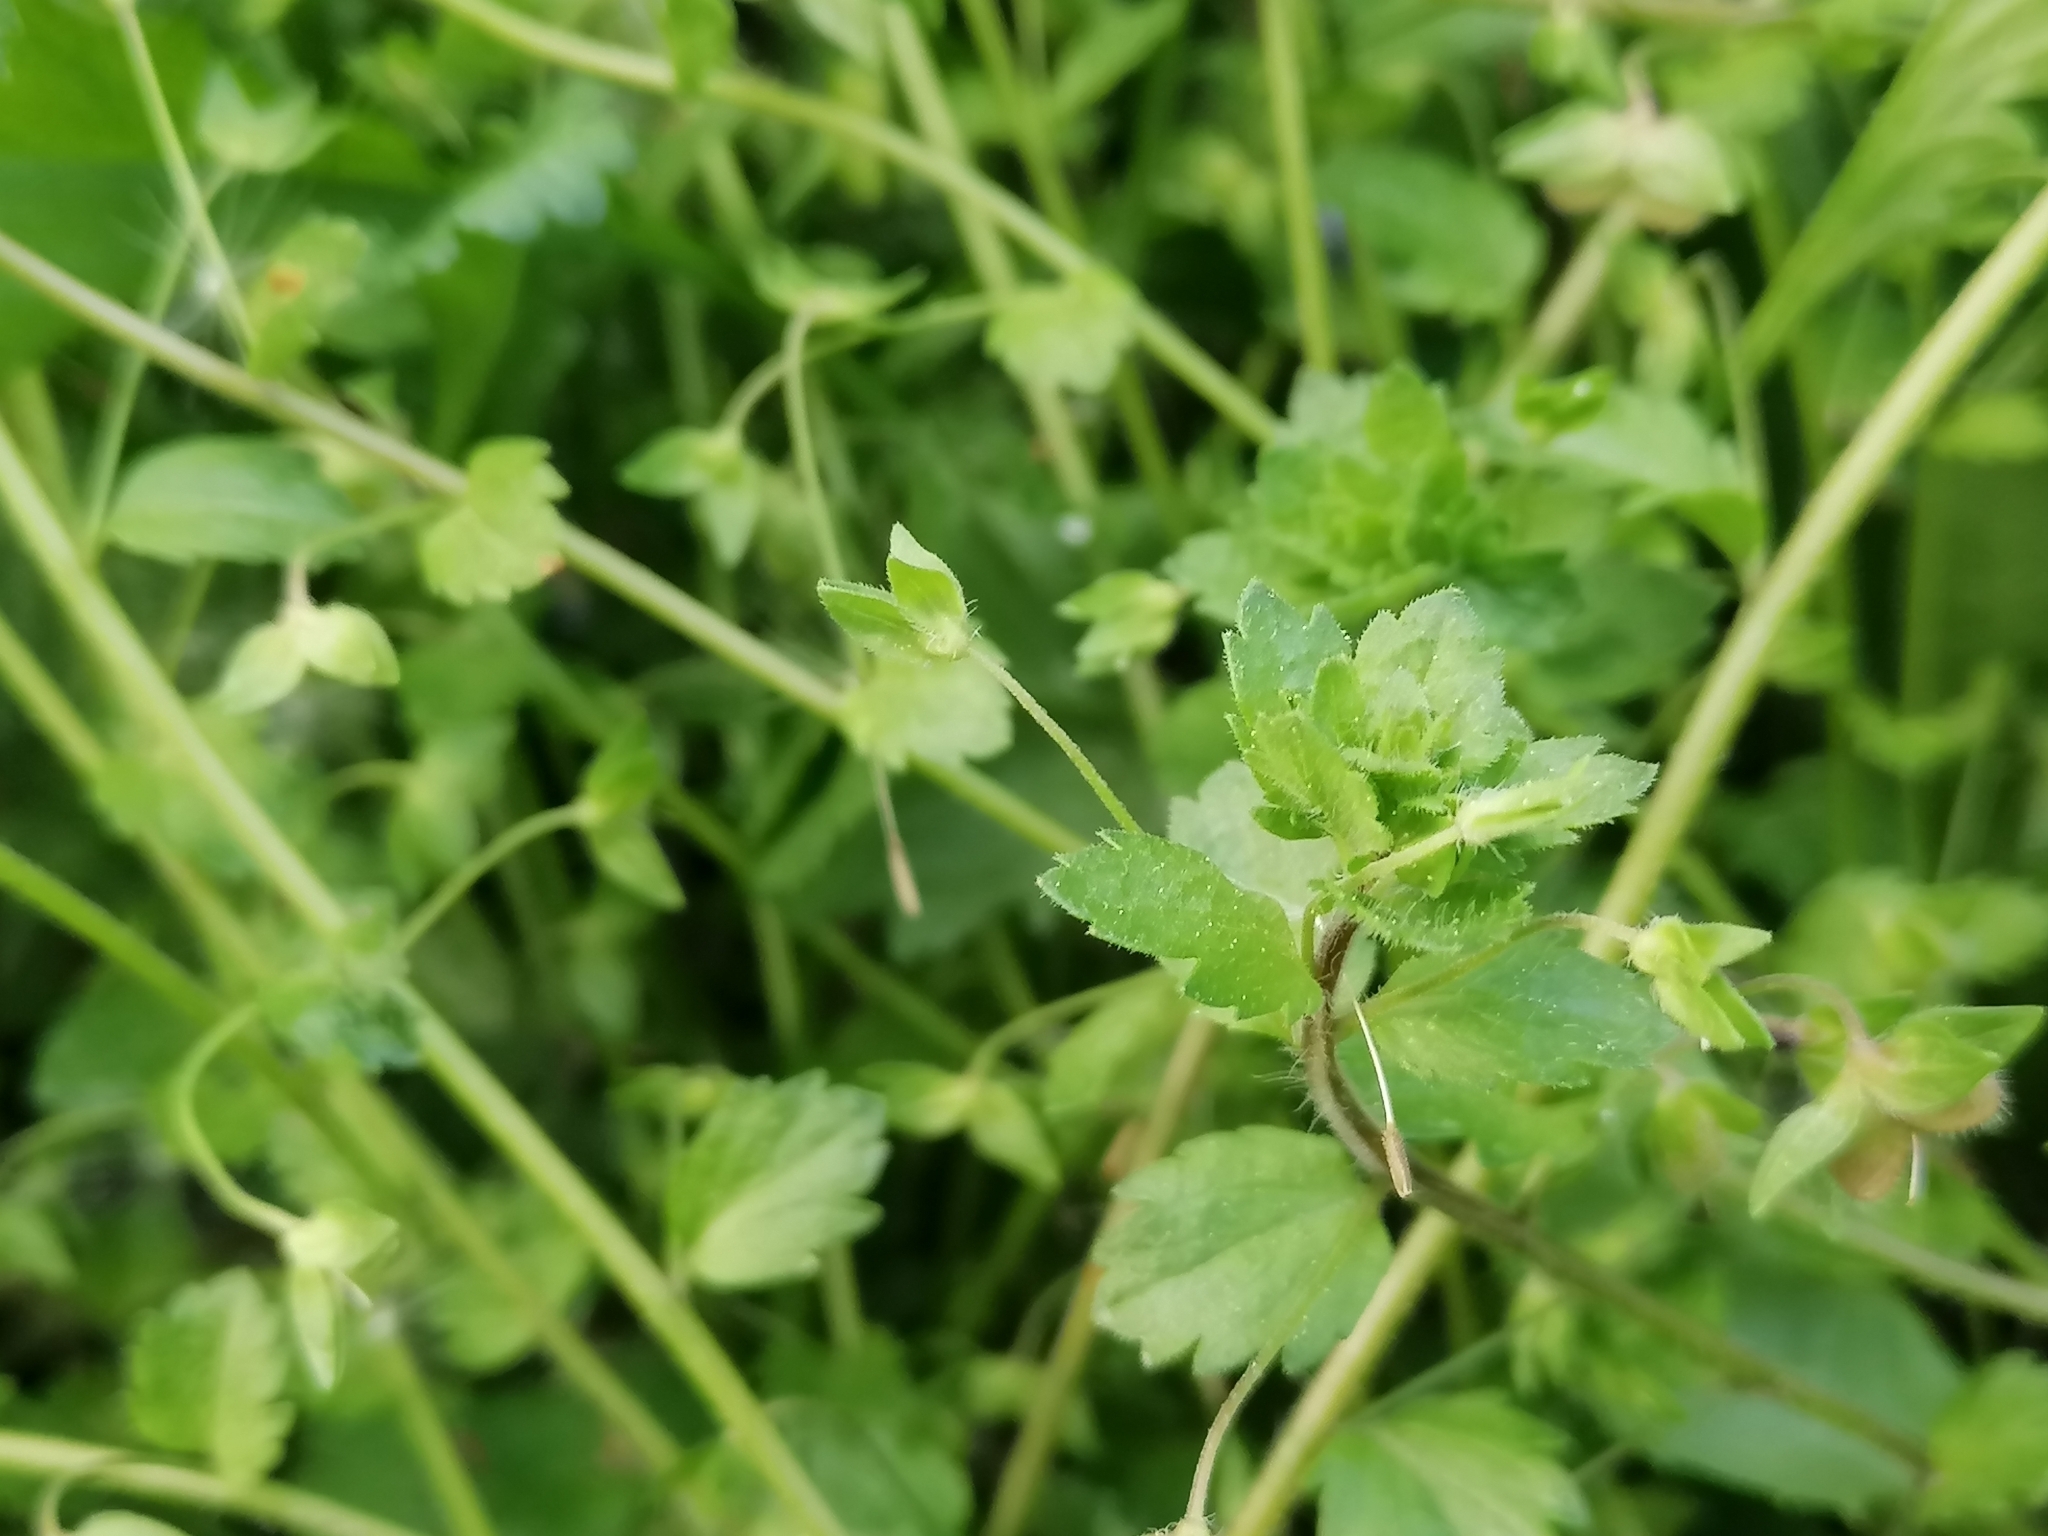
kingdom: Plantae
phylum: Tracheophyta
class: Magnoliopsida
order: Lamiales
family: Plantaginaceae
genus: Veronica
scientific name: Veronica persica
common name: Common field-speedwell
